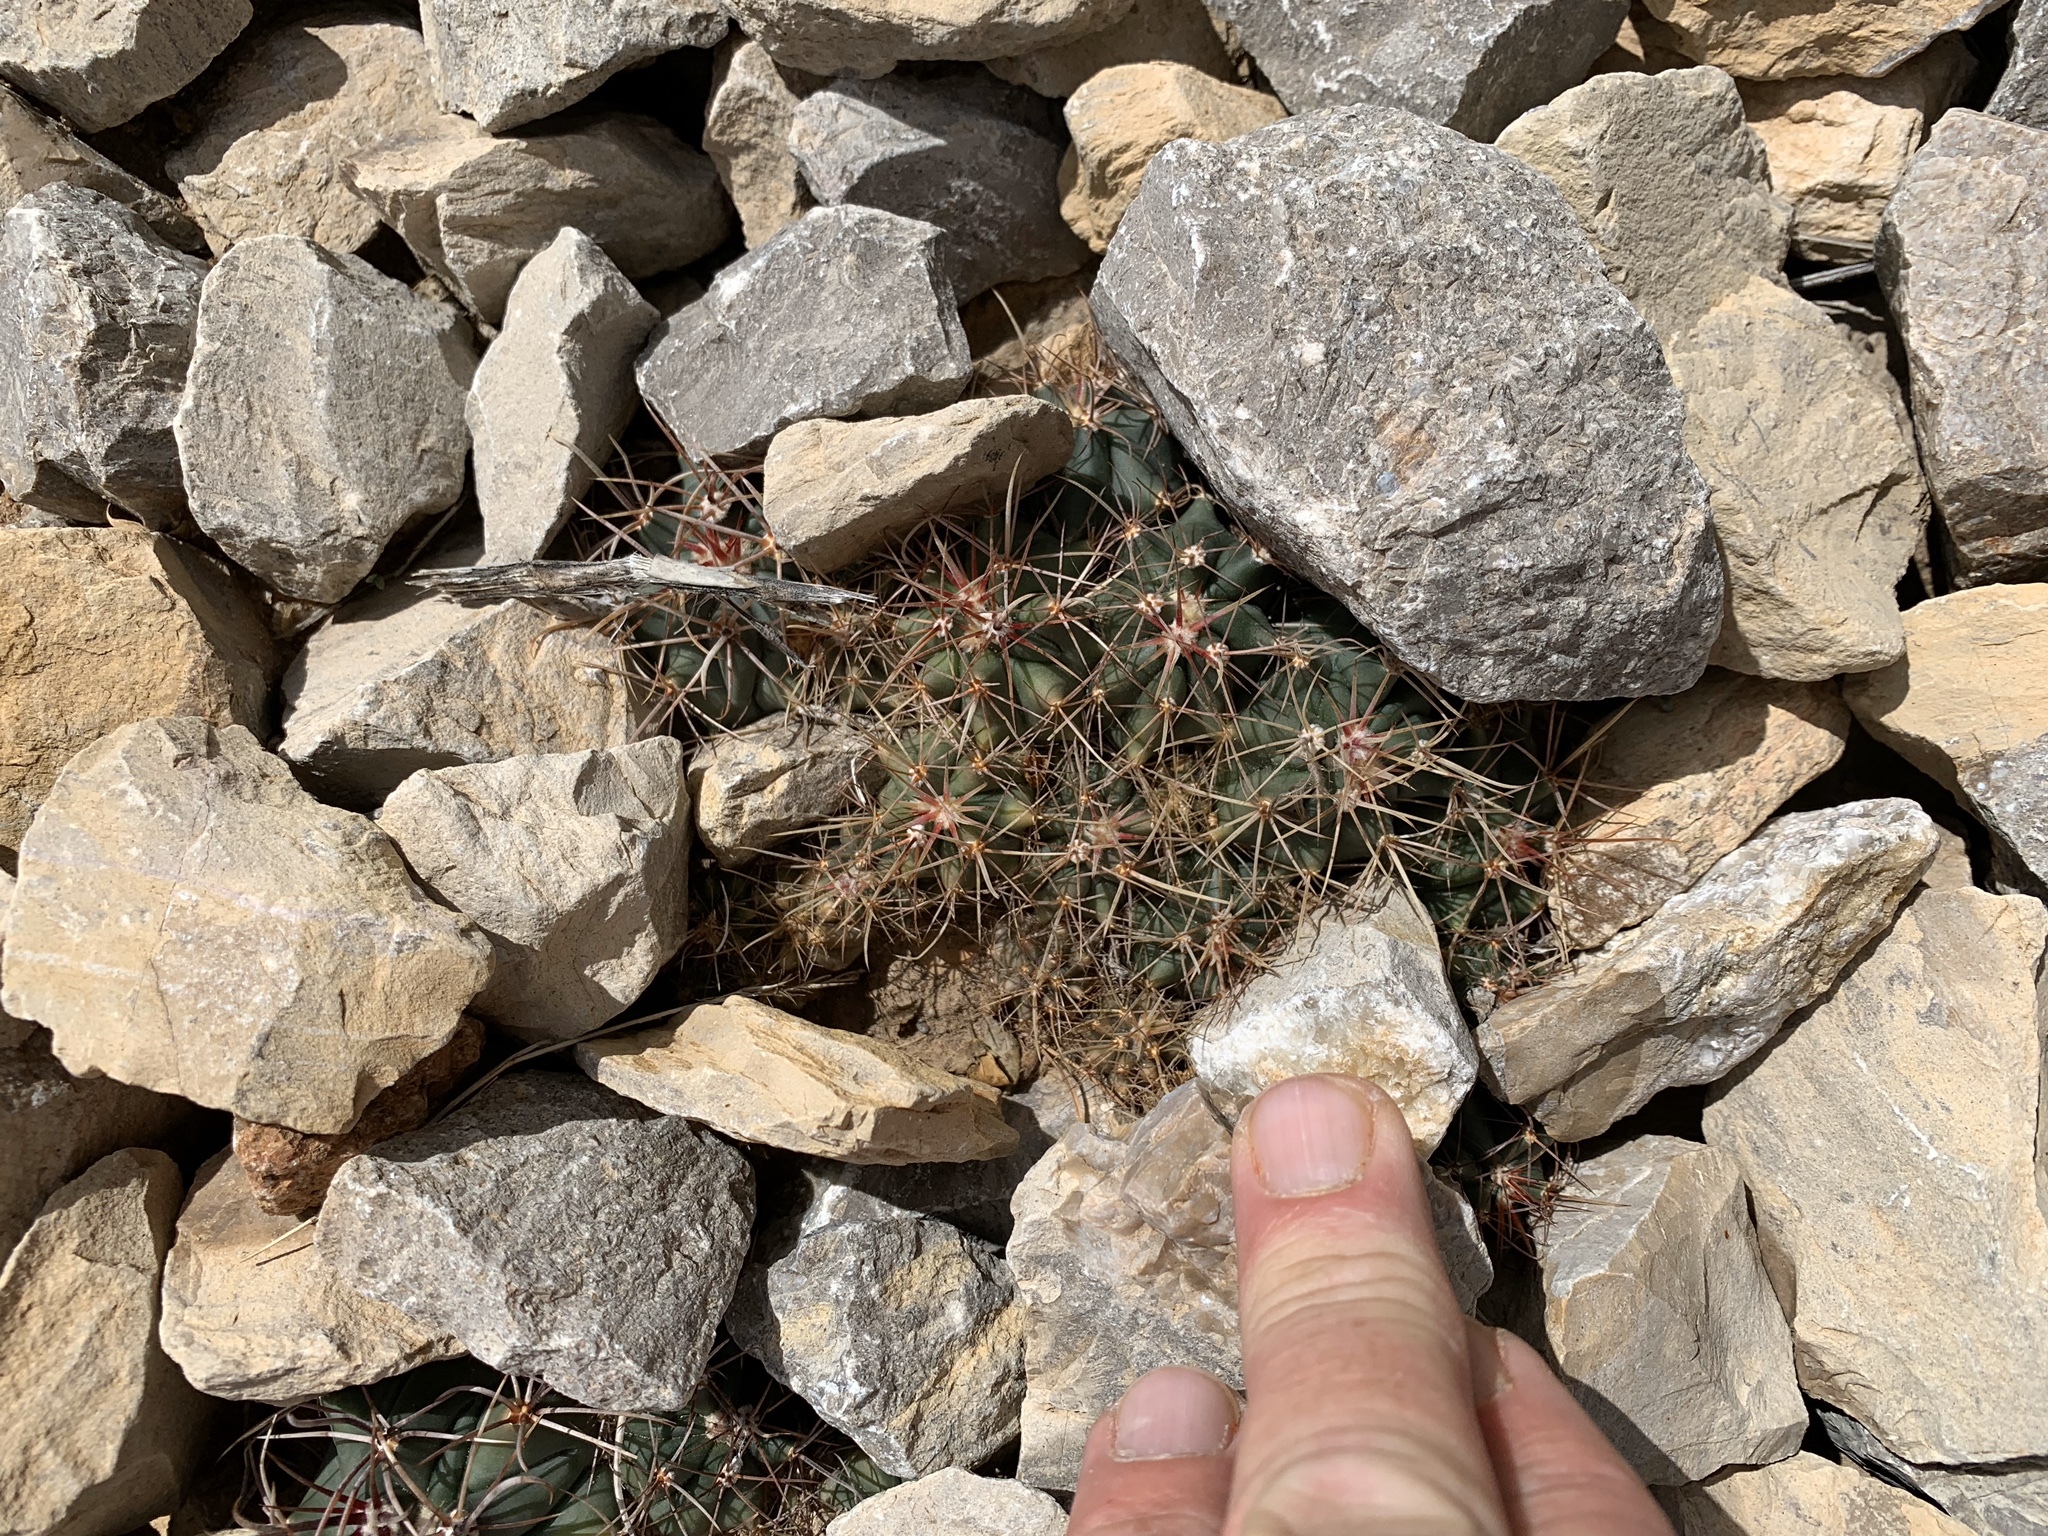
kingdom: Plantae
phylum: Tracheophyta
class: Magnoliopsida
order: Caryophyllales
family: Cactaceae
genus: Ferocactus
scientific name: Ferocactus wislizeni
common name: Candy barrel cactus
